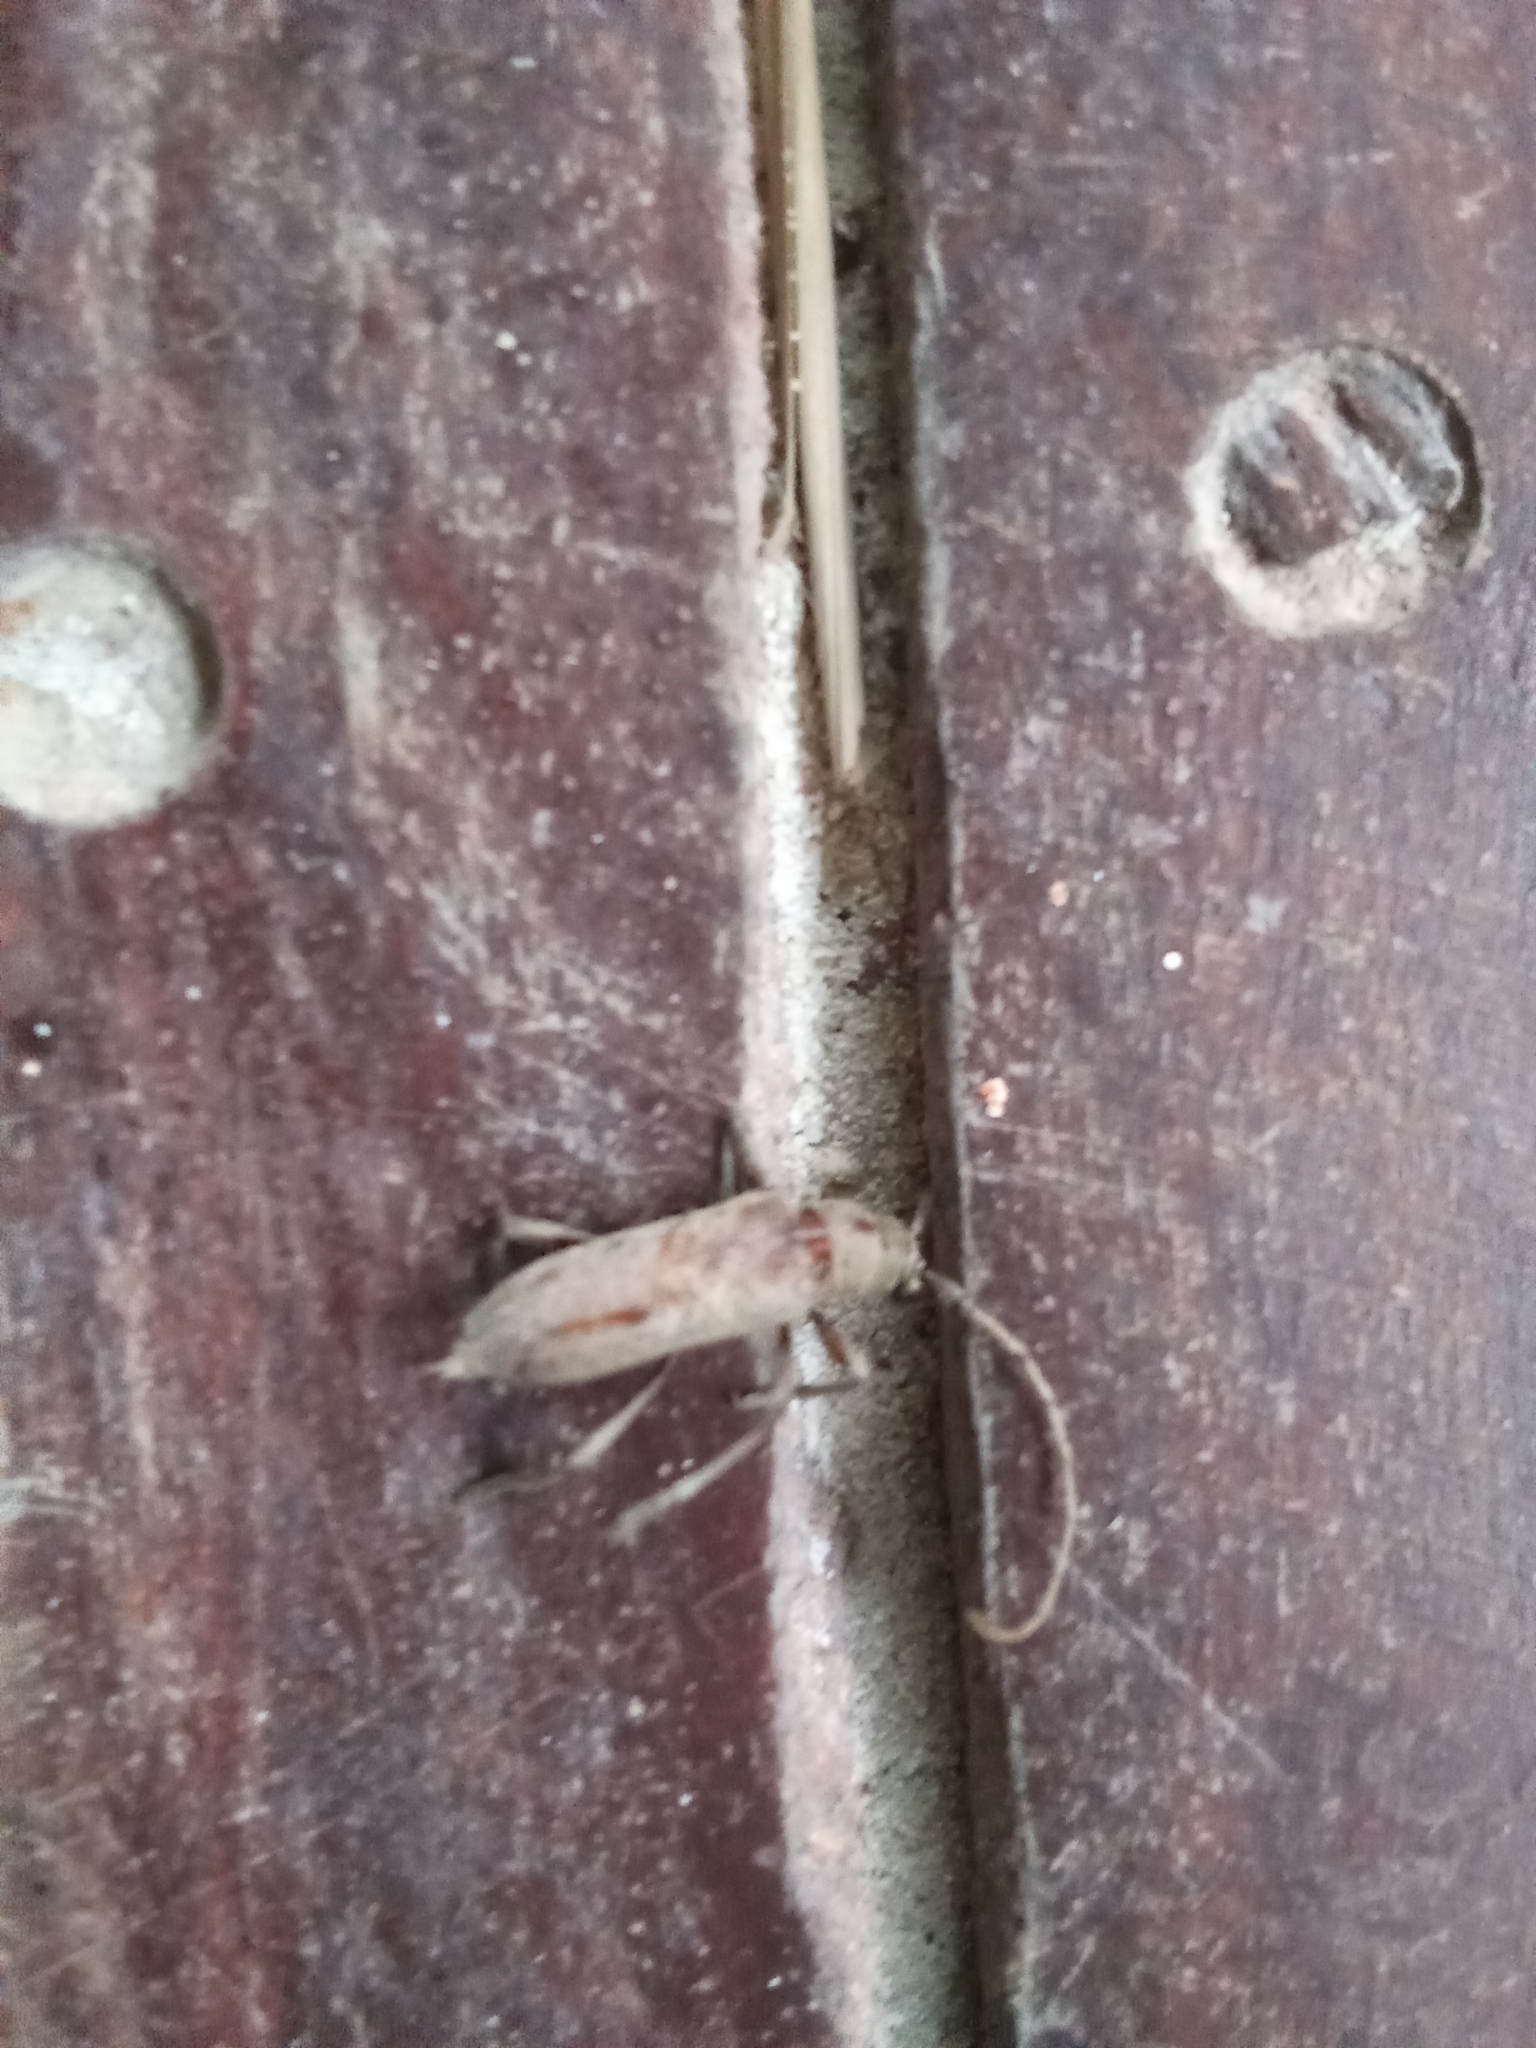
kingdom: Animalia
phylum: Arthropoda
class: Insecta
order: Coleoptera
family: Cerambycidae
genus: Eburia
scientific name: Eburia porulosa
